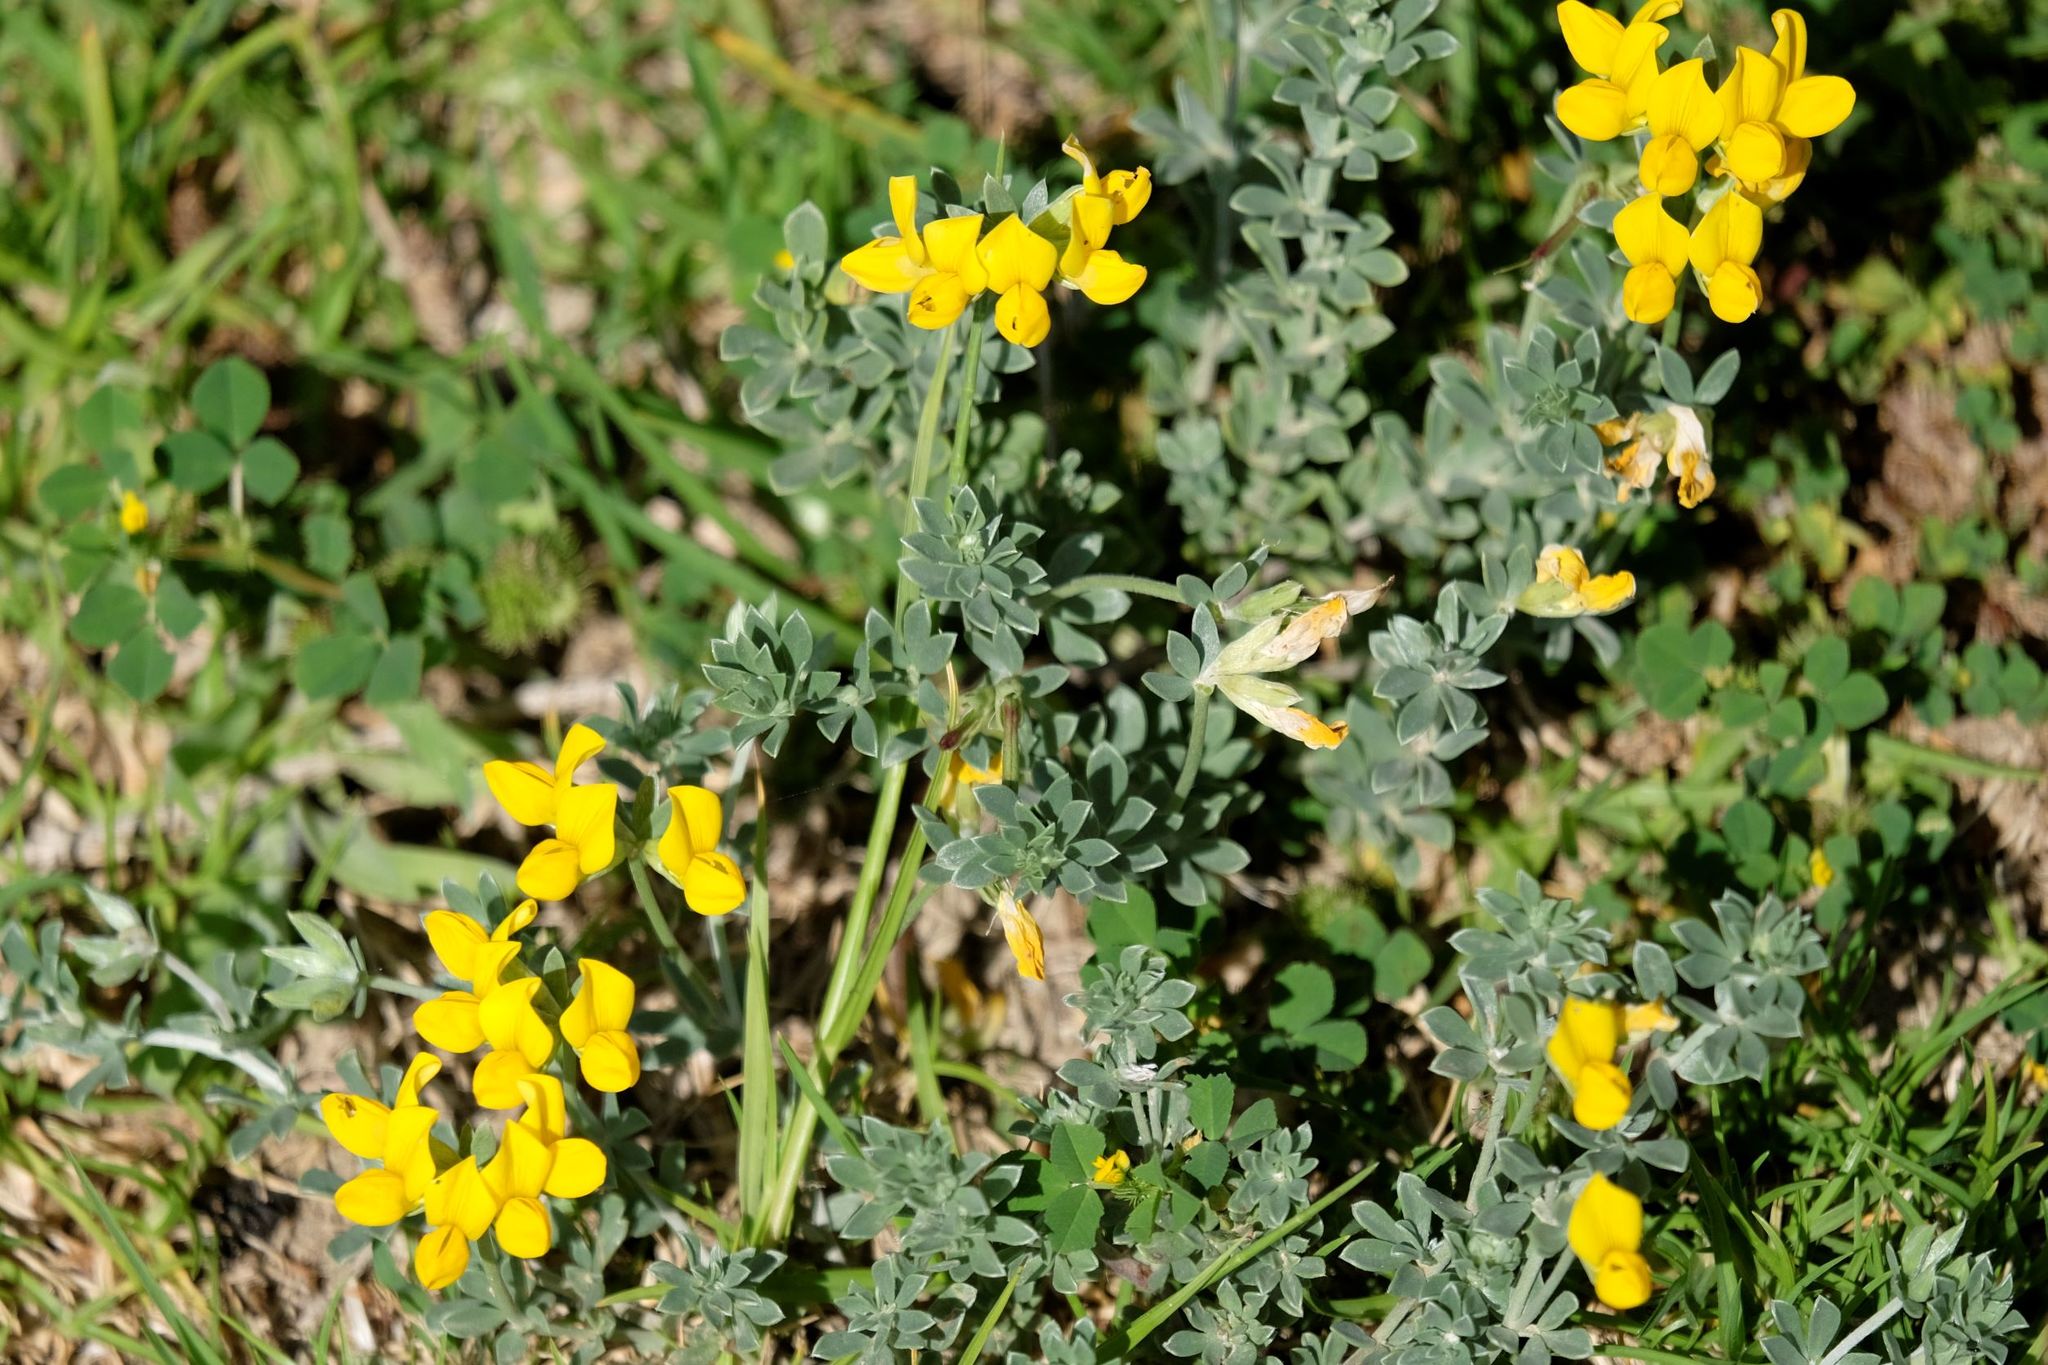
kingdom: Plantae
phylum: Tracheophyta
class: Magnoliopsida
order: Fabales
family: Fabaceae
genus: Lotus
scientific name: Lotus creticus
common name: Cretan bird's-foot trefoil
